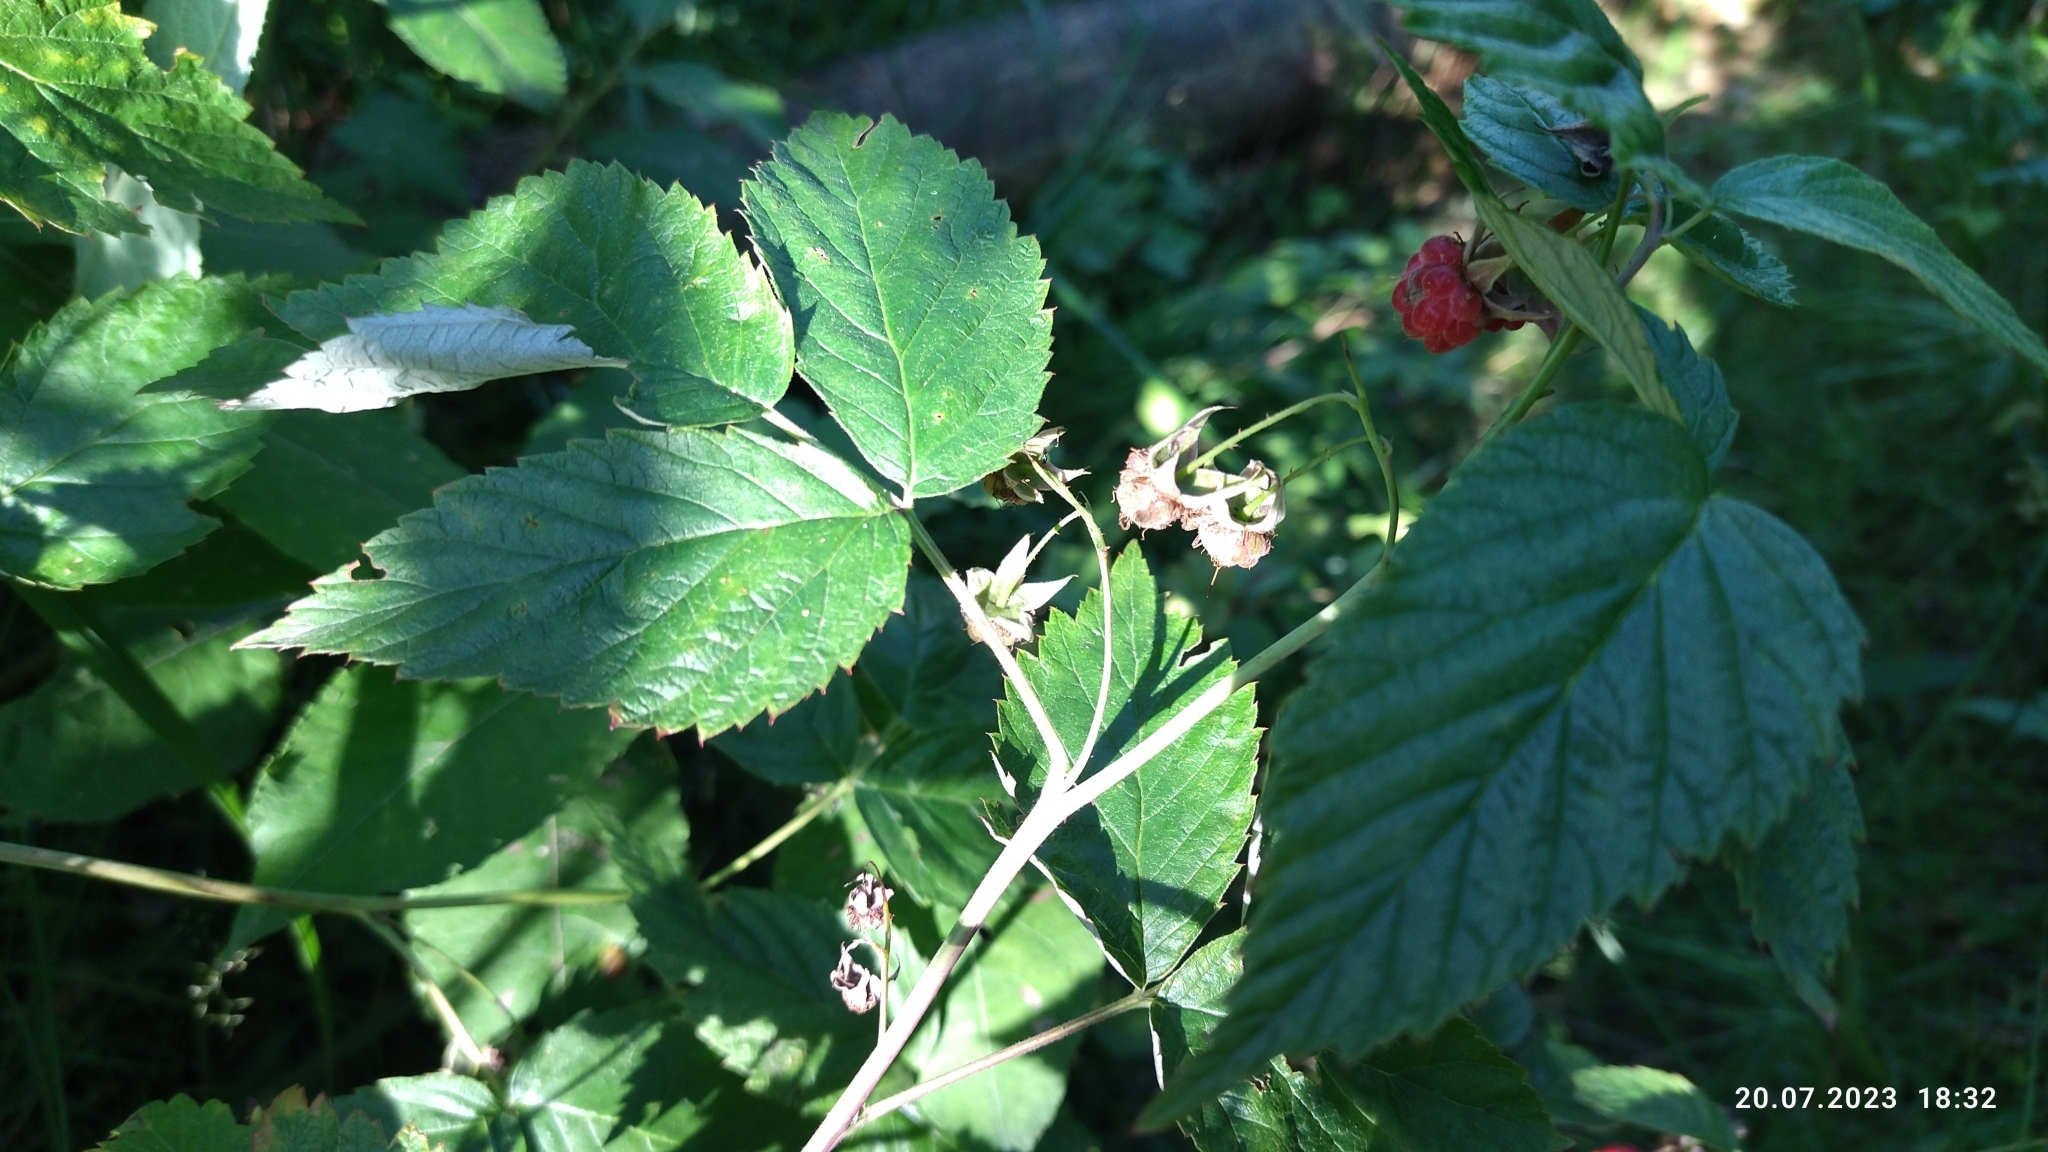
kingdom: Plantae
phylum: Tracheophyta
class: Magnoliopsida
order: Rosales
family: Rosaceae
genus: Rubus
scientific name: Rubus idaeus
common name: Raspberry
